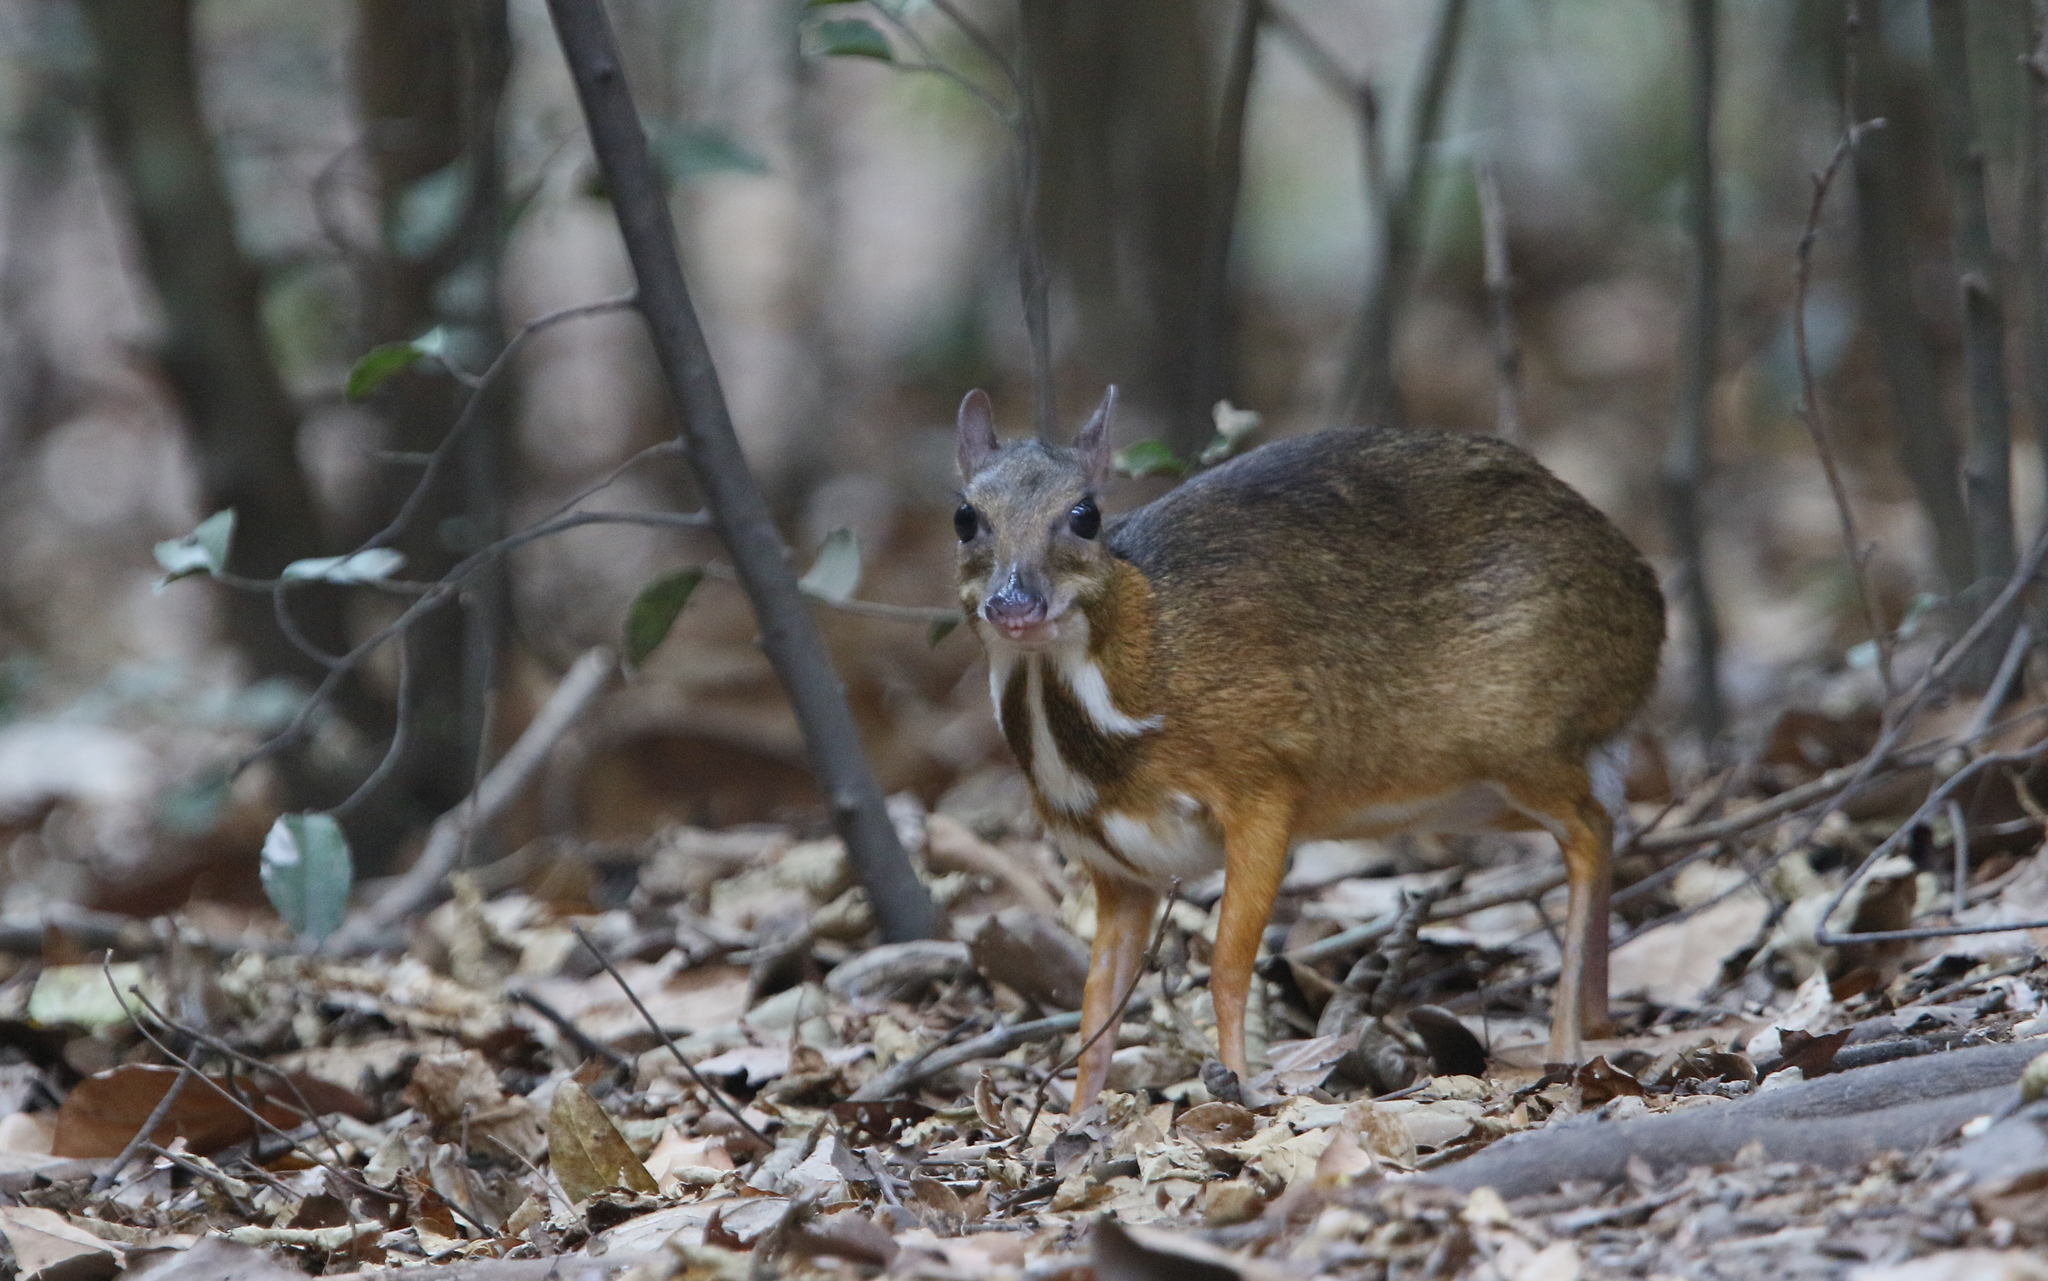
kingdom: Animalia
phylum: Chordata
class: Mammalia
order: Artiodactyla
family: Tragulidae
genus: Tragulus
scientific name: Tragulus kanchil
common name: Lesser mouse-deer
